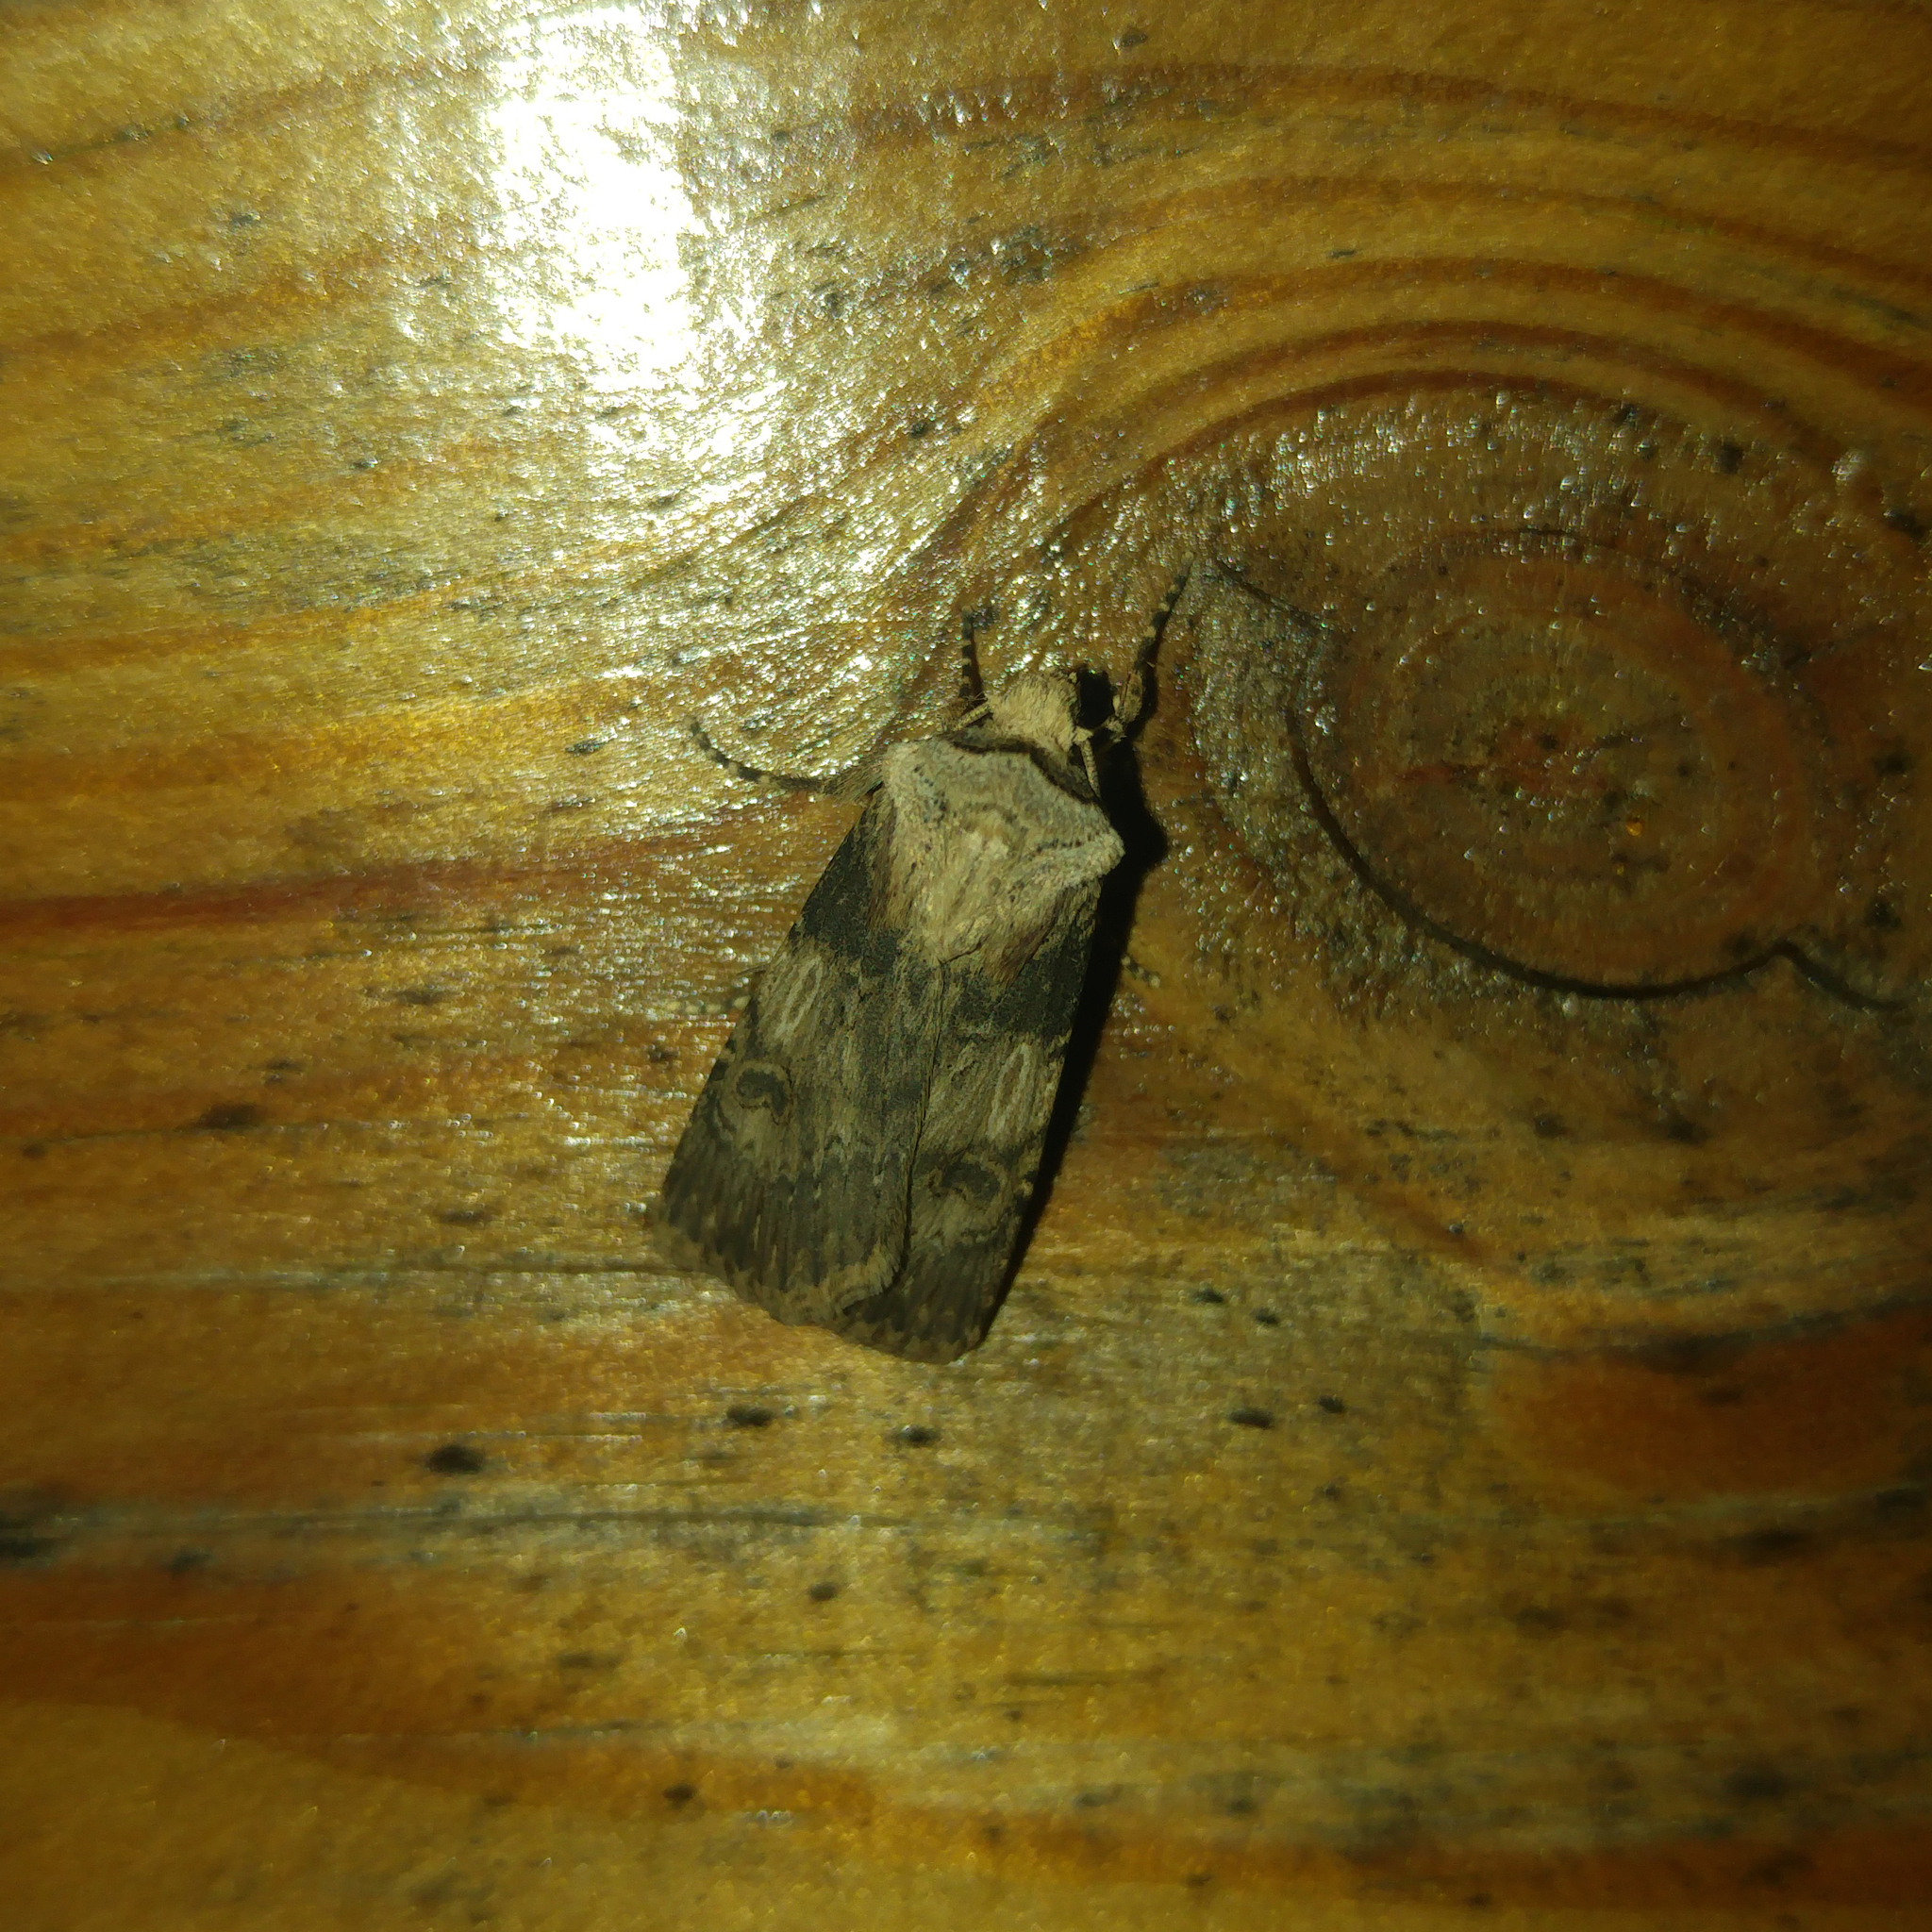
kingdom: Animalia
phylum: Arthropoda
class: Insecta
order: Lepidoptera
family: Noctuidae
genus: Agrotis
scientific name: Agrotis puta
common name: Shuttle-shaped dart
